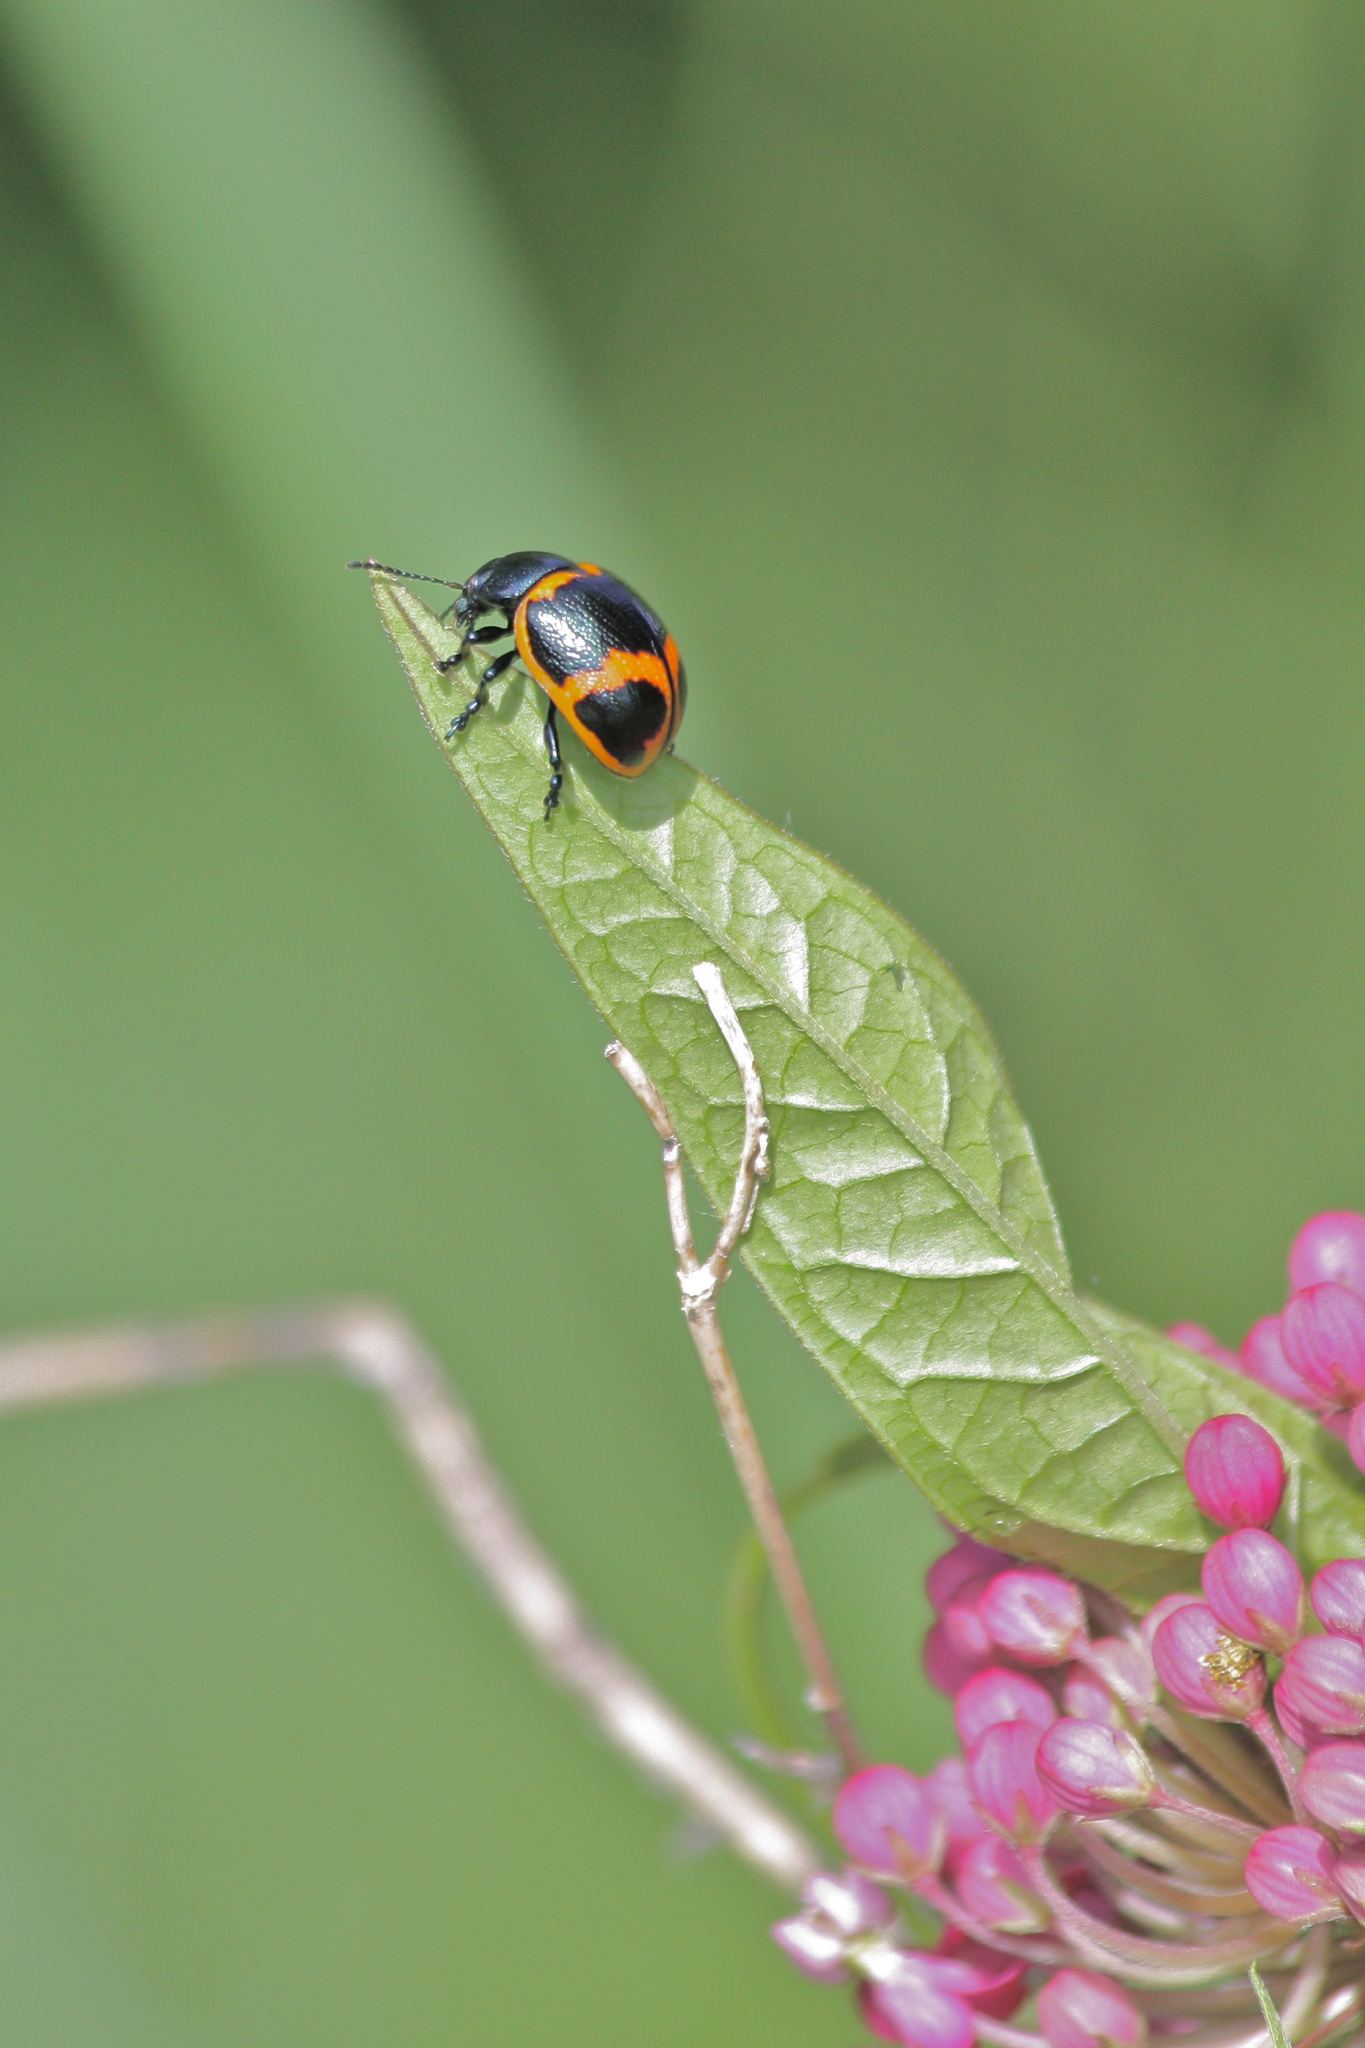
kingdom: Animalia
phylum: Arthropoda
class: Insecta
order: Coleoptera
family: Chrysomelidae
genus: Labidomera
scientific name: Labidomera clivicollis
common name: Swamp milkweed leaf beetle
